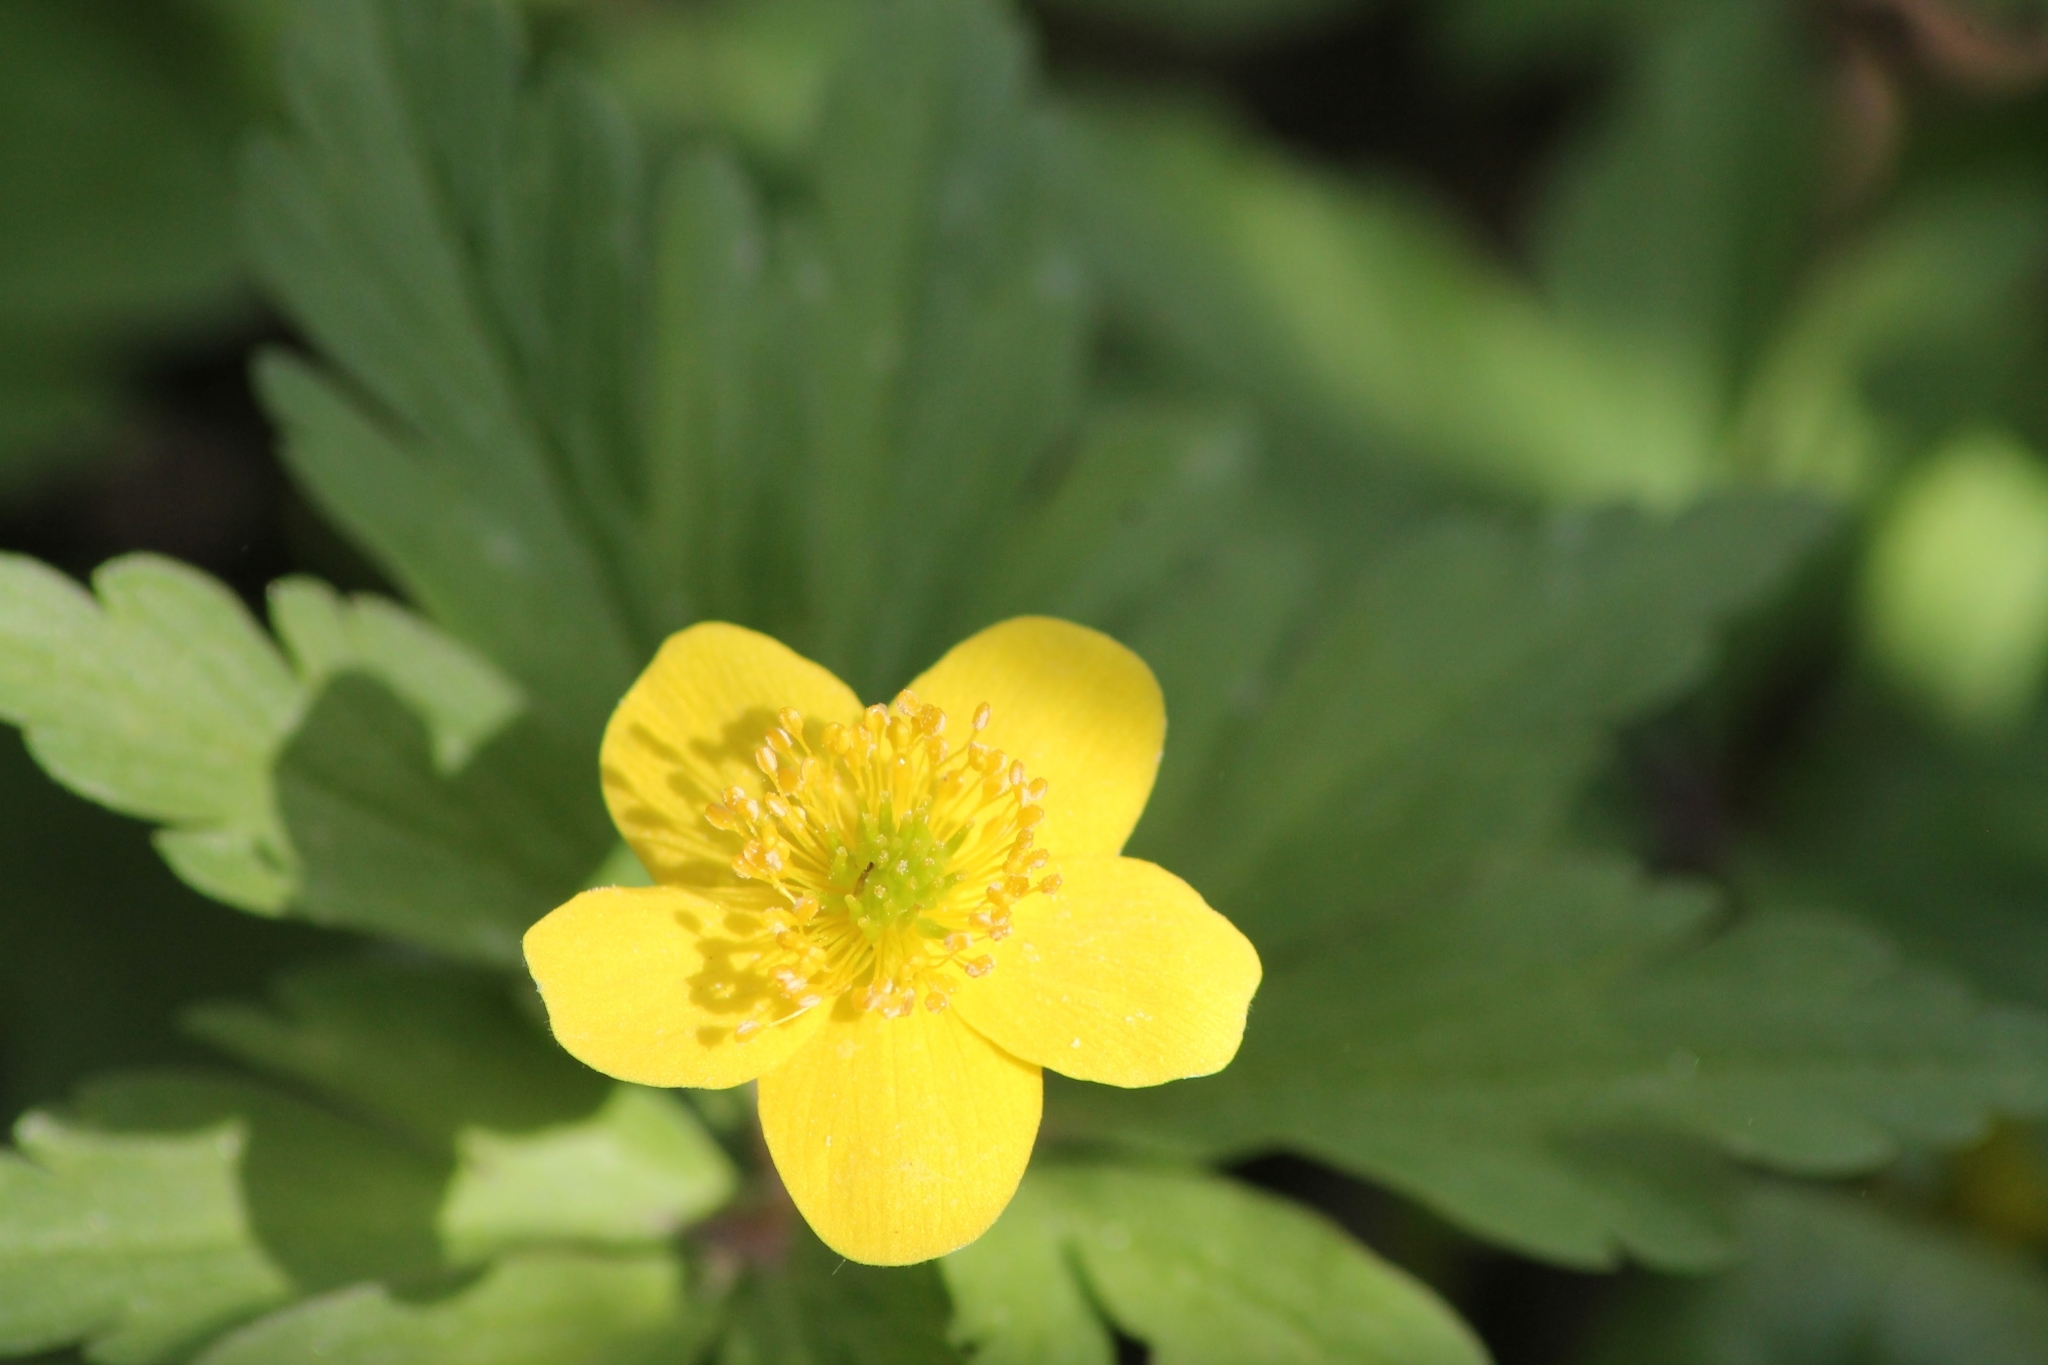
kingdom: Plantae
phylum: Tracheophyta
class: Magnoliopsida
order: Ranunculales
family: Ranunculaceae
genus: Anemone
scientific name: Anemone ranunculoides
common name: Yellow anemone
